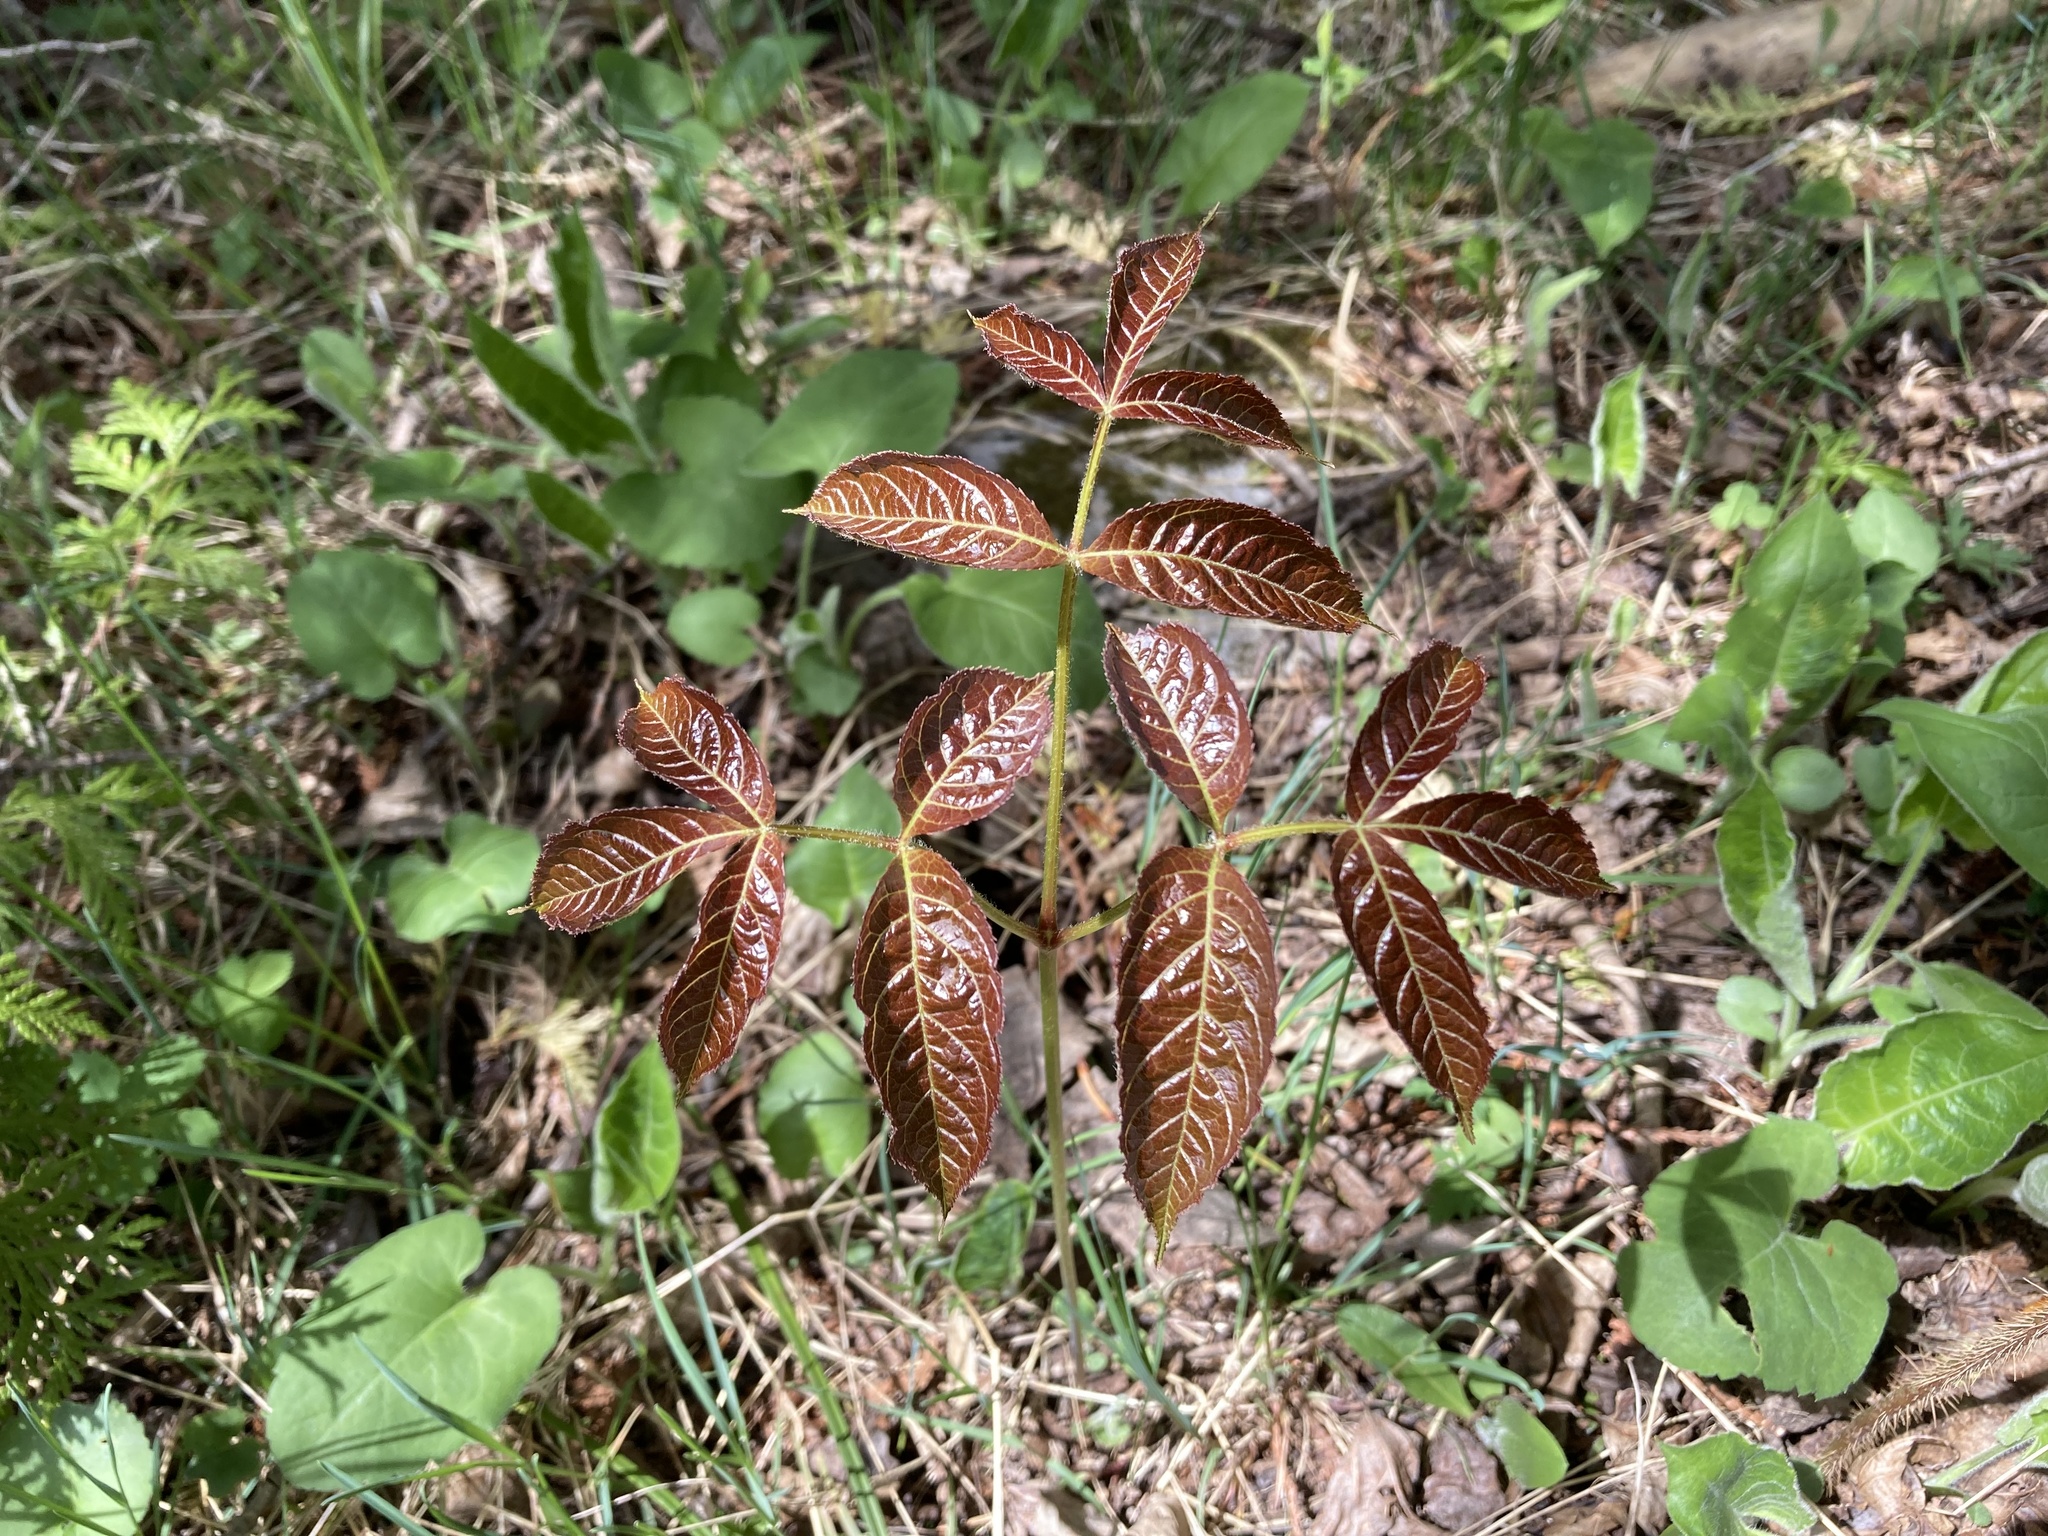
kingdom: Plantae
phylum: Tracheophyta
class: Magnoliopsida
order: Apiales
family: Araliaceae
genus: Aralia
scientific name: Aralia nudicaulis
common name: Wild sarsaparilla
